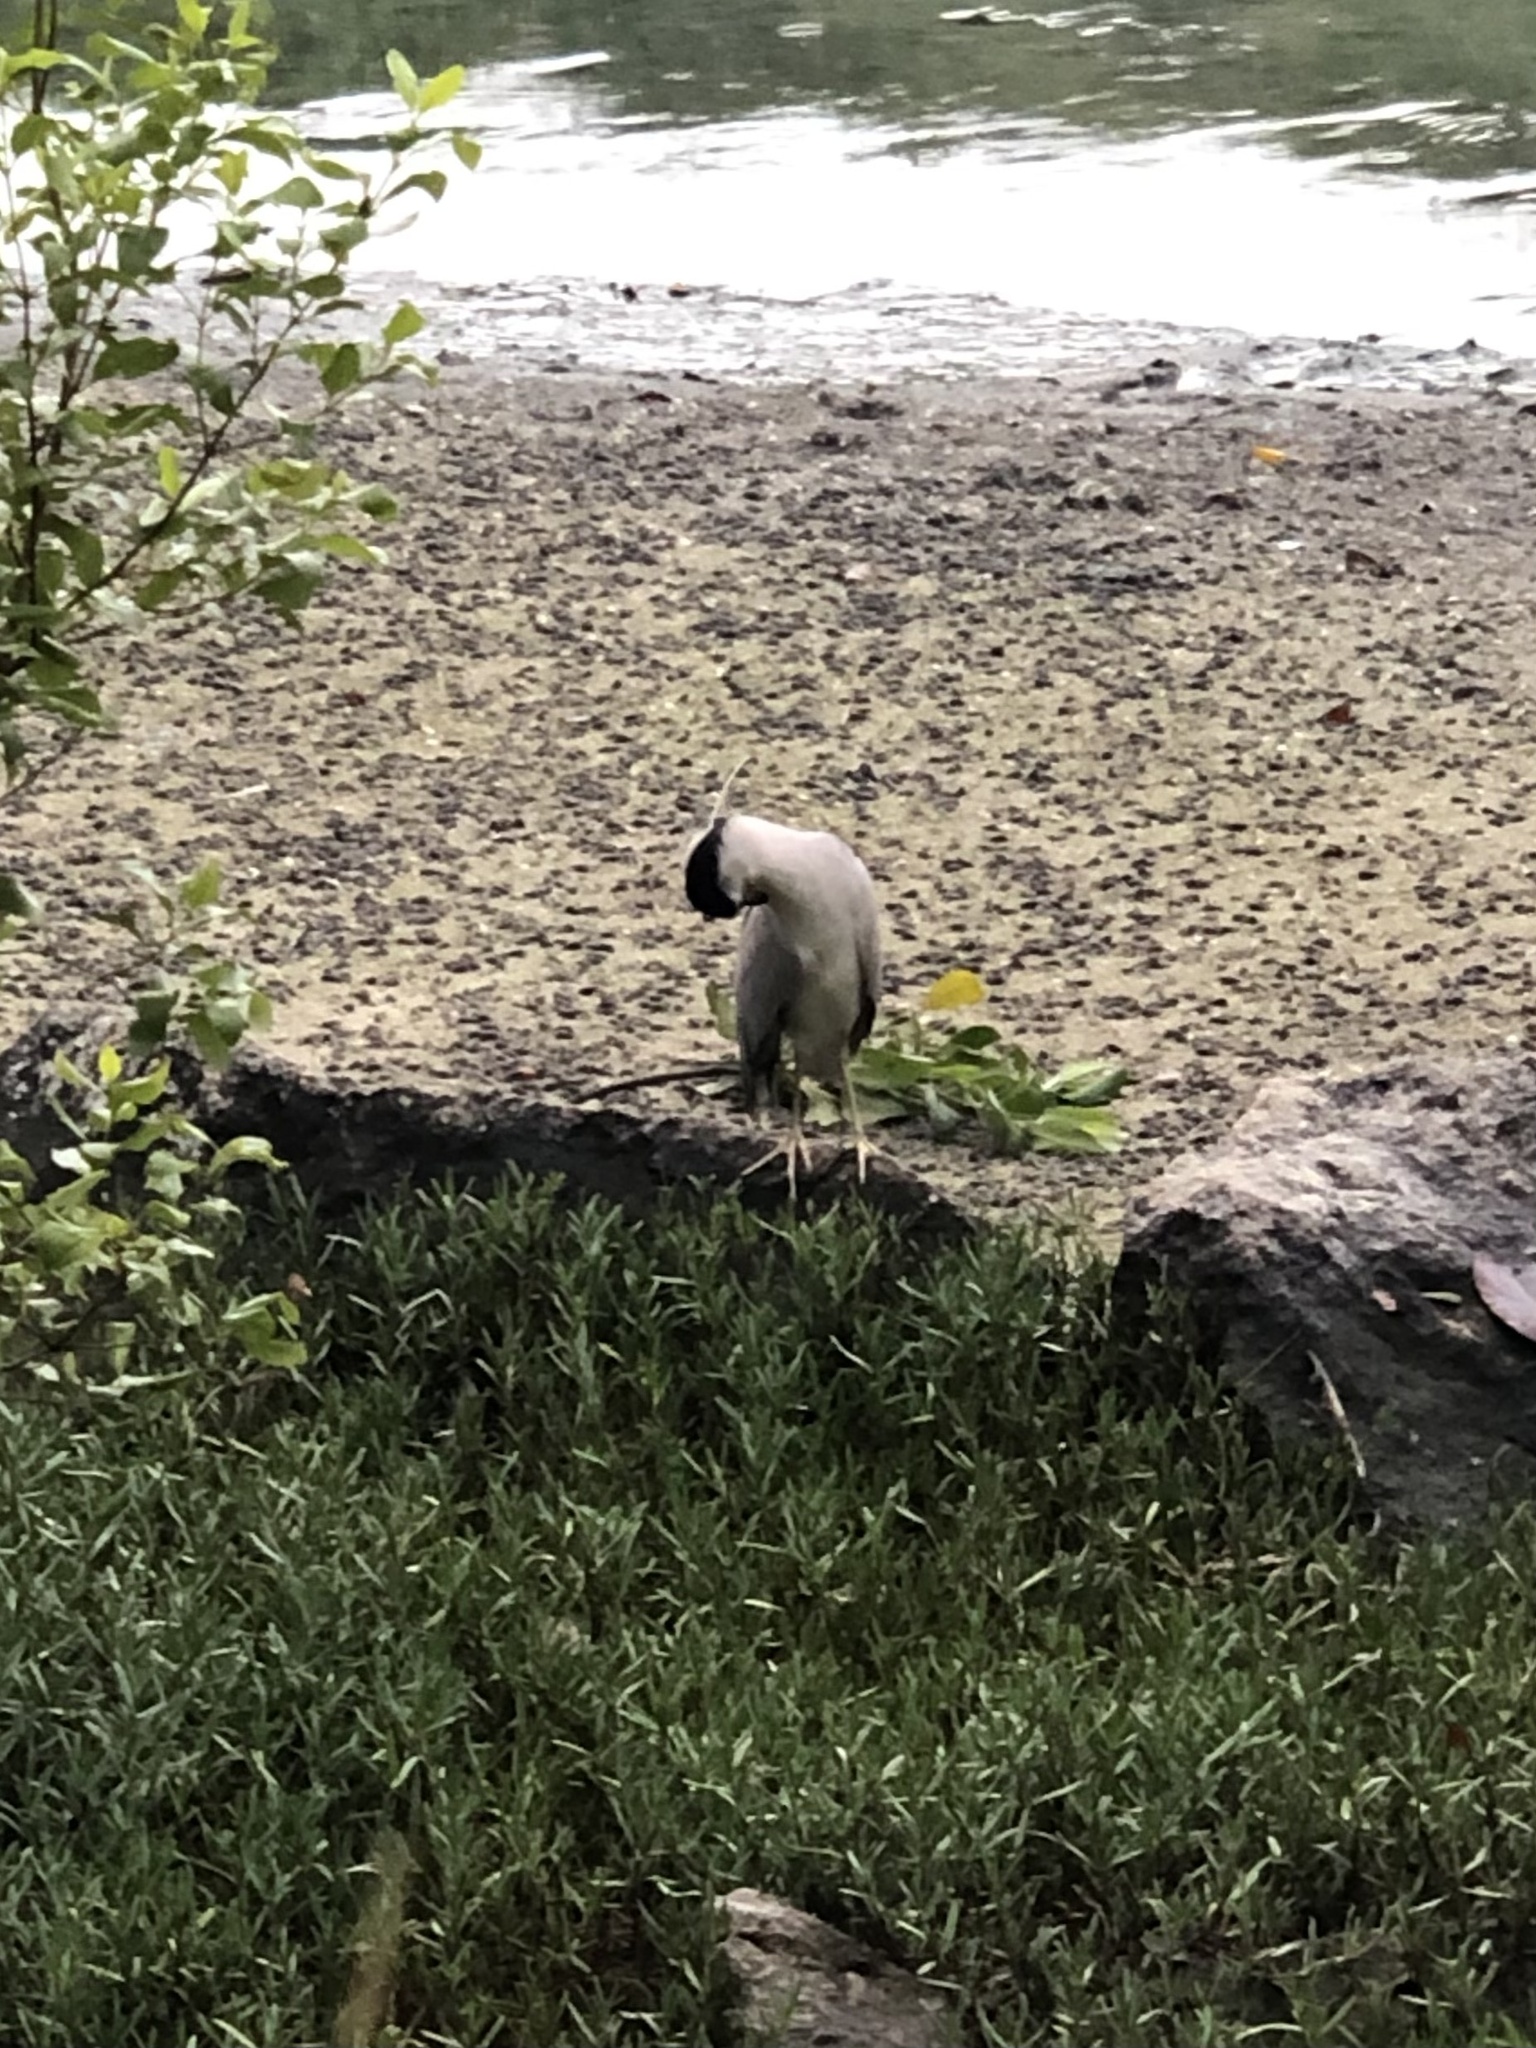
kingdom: Animalia
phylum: Chordata
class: Aves
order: Pelecaniformes
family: Ardeidae
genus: Nycticorax
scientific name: Nycticorax nycticorax
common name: Black-crowned night heron
